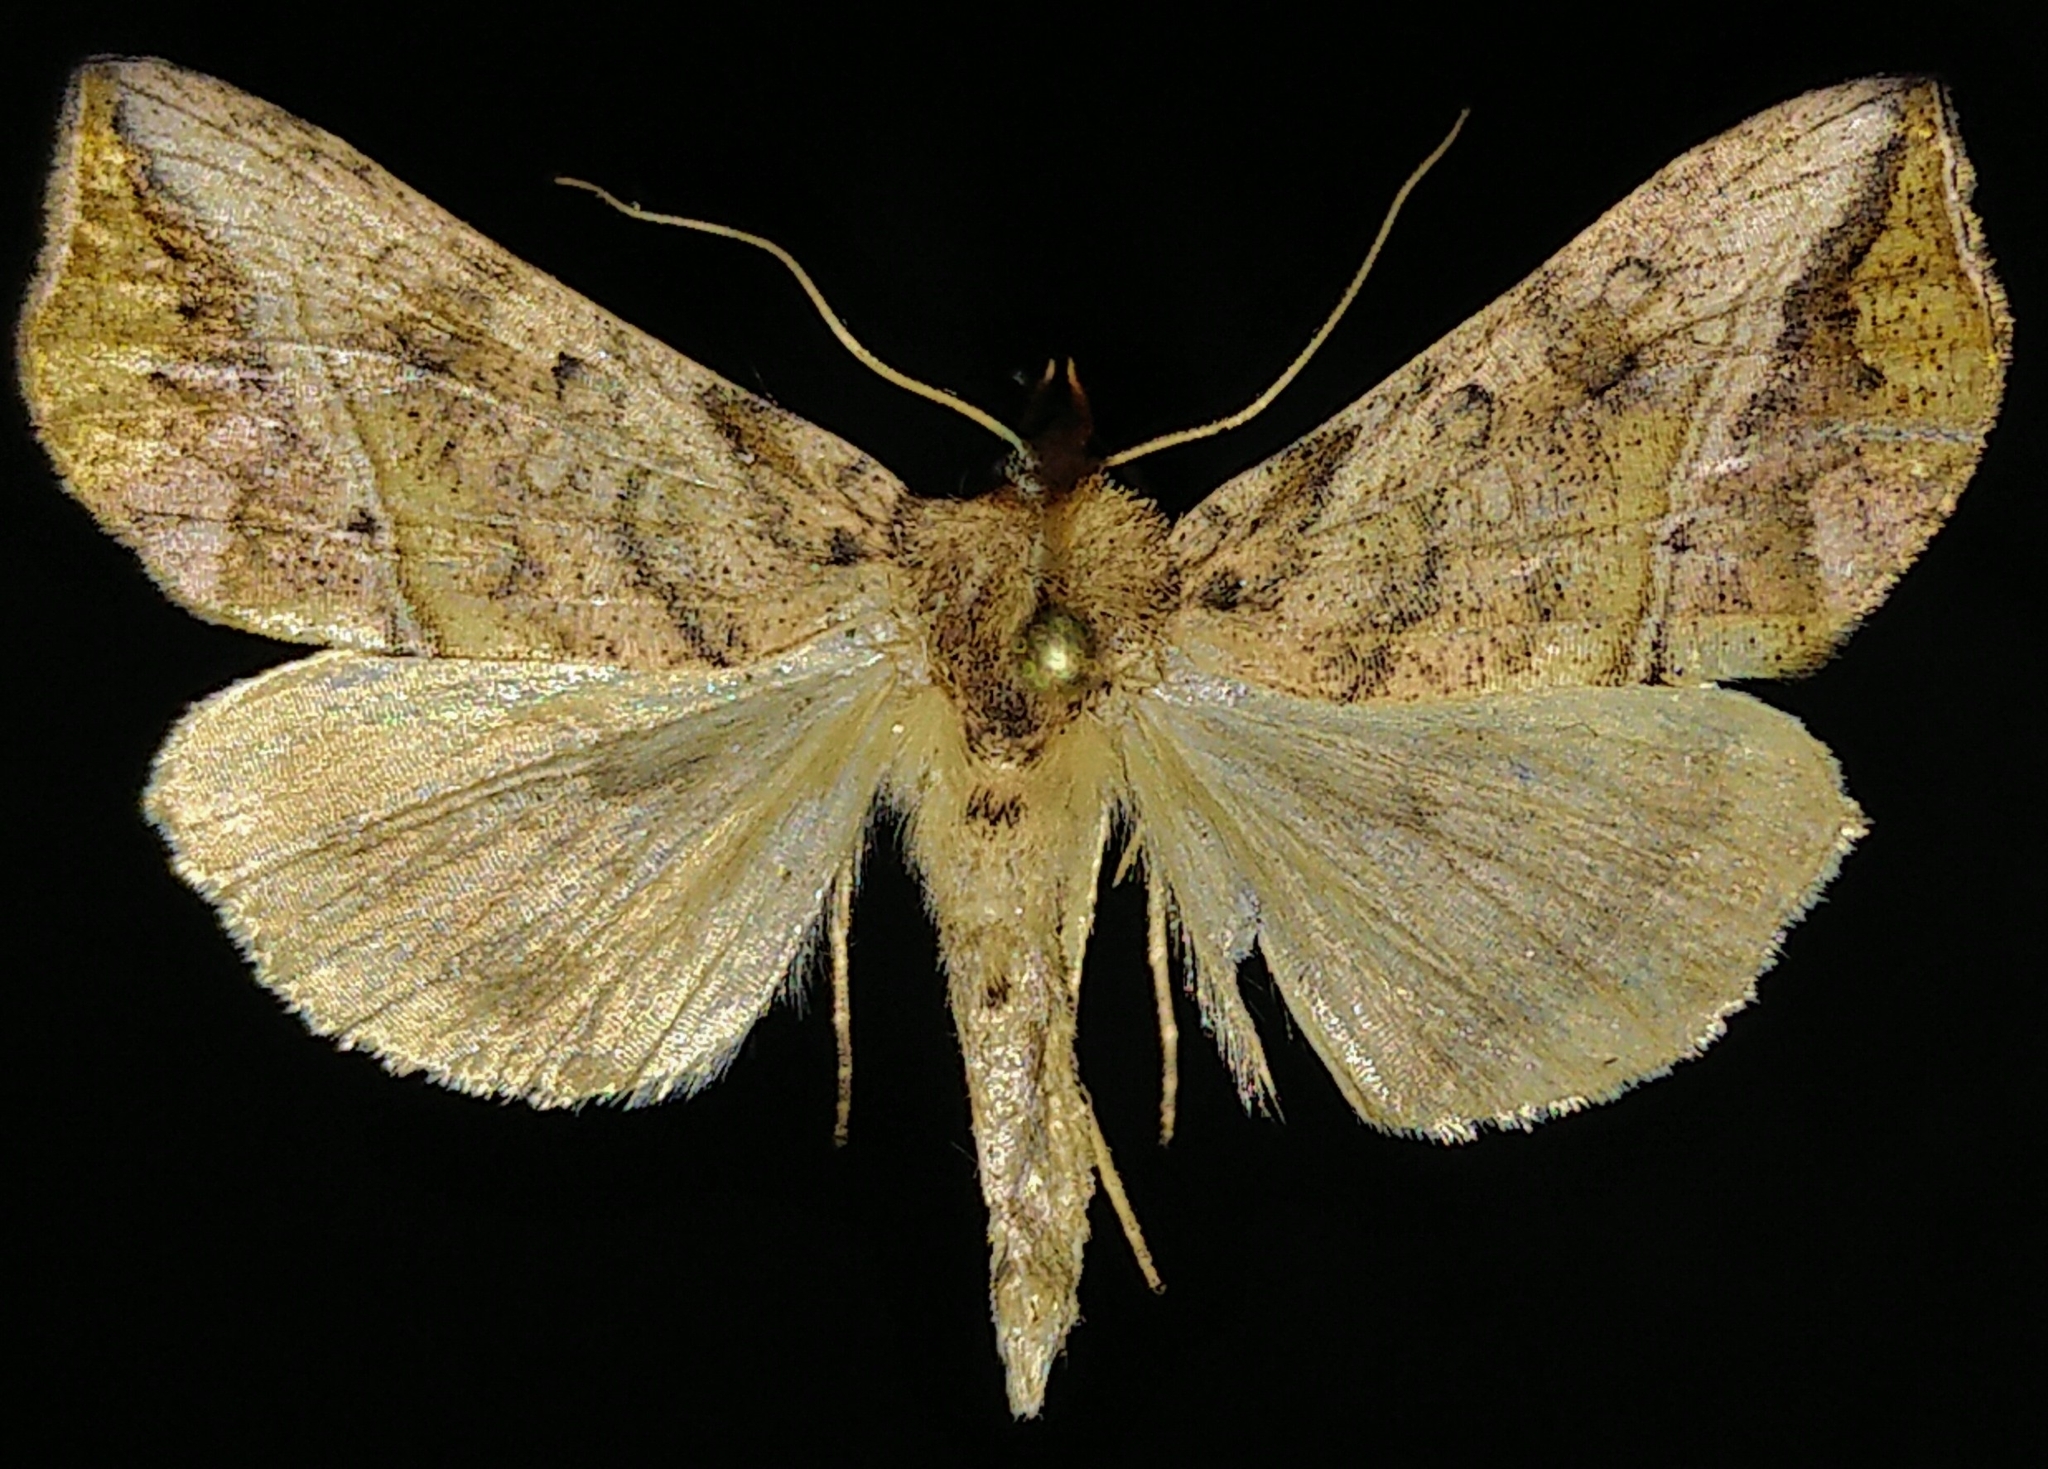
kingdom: Animalia
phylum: Arthropoda
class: Insecta
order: Lepidoptera
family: Noctuidae
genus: Pseudeva
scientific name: Pseudeva purpurigera
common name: Straight-lined looper moth
